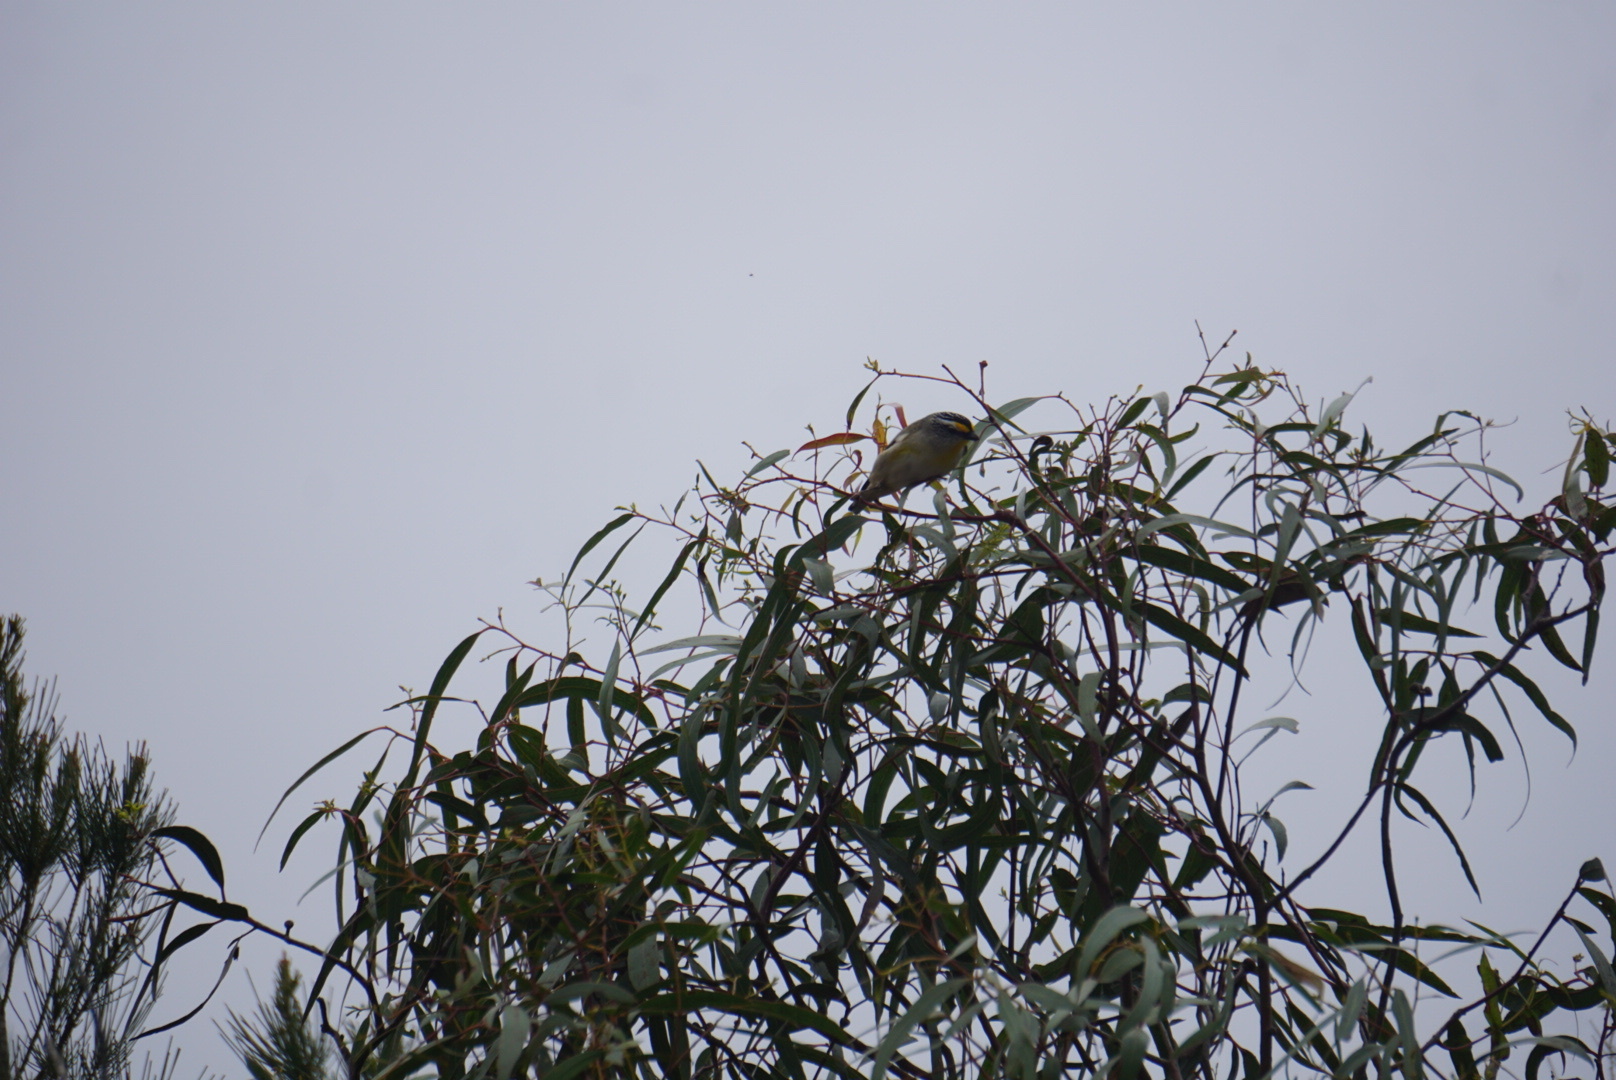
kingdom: Animalia
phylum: Chordata
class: Aves
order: Passeriformes
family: Pardalotidae
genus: Pardalotus
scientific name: Pardalotus striatus
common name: Striated pardalote
